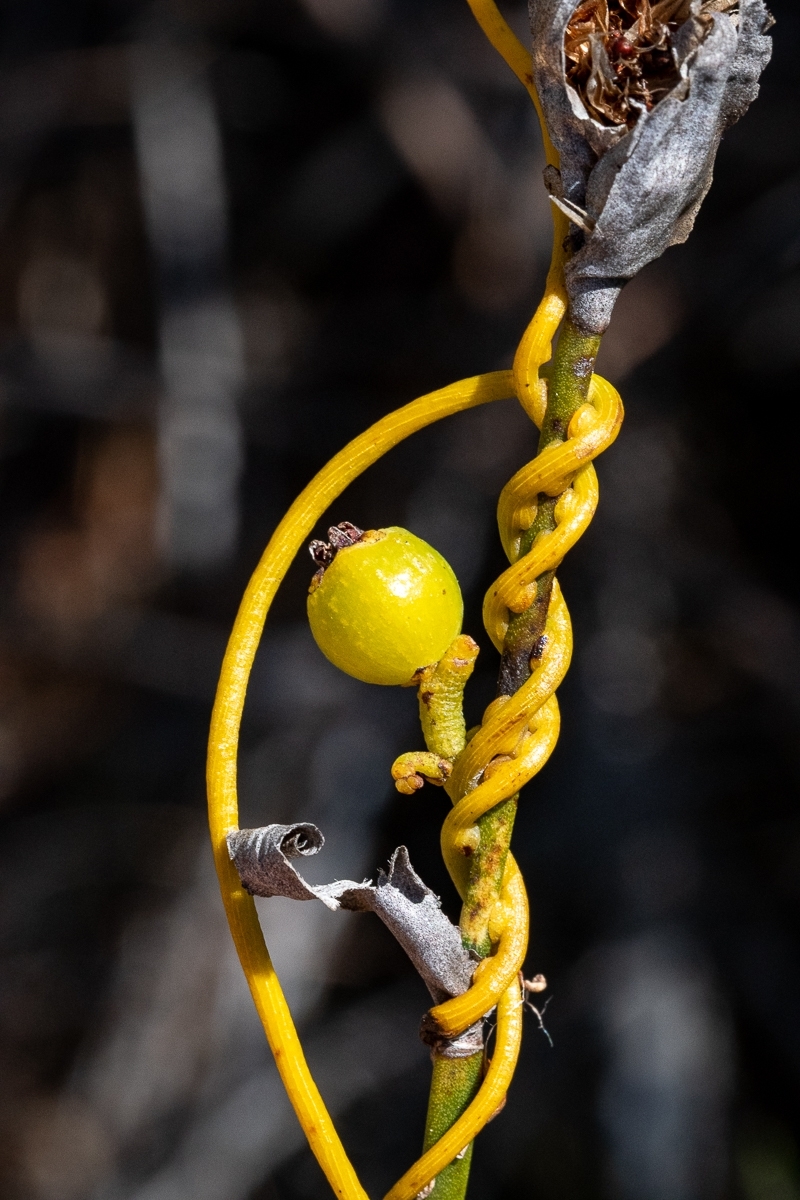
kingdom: Plantae
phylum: Tracheophyta
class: Magnoliopsida
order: Laurales
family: Lauraceae
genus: Cassytha
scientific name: Cassytha ciliolata
